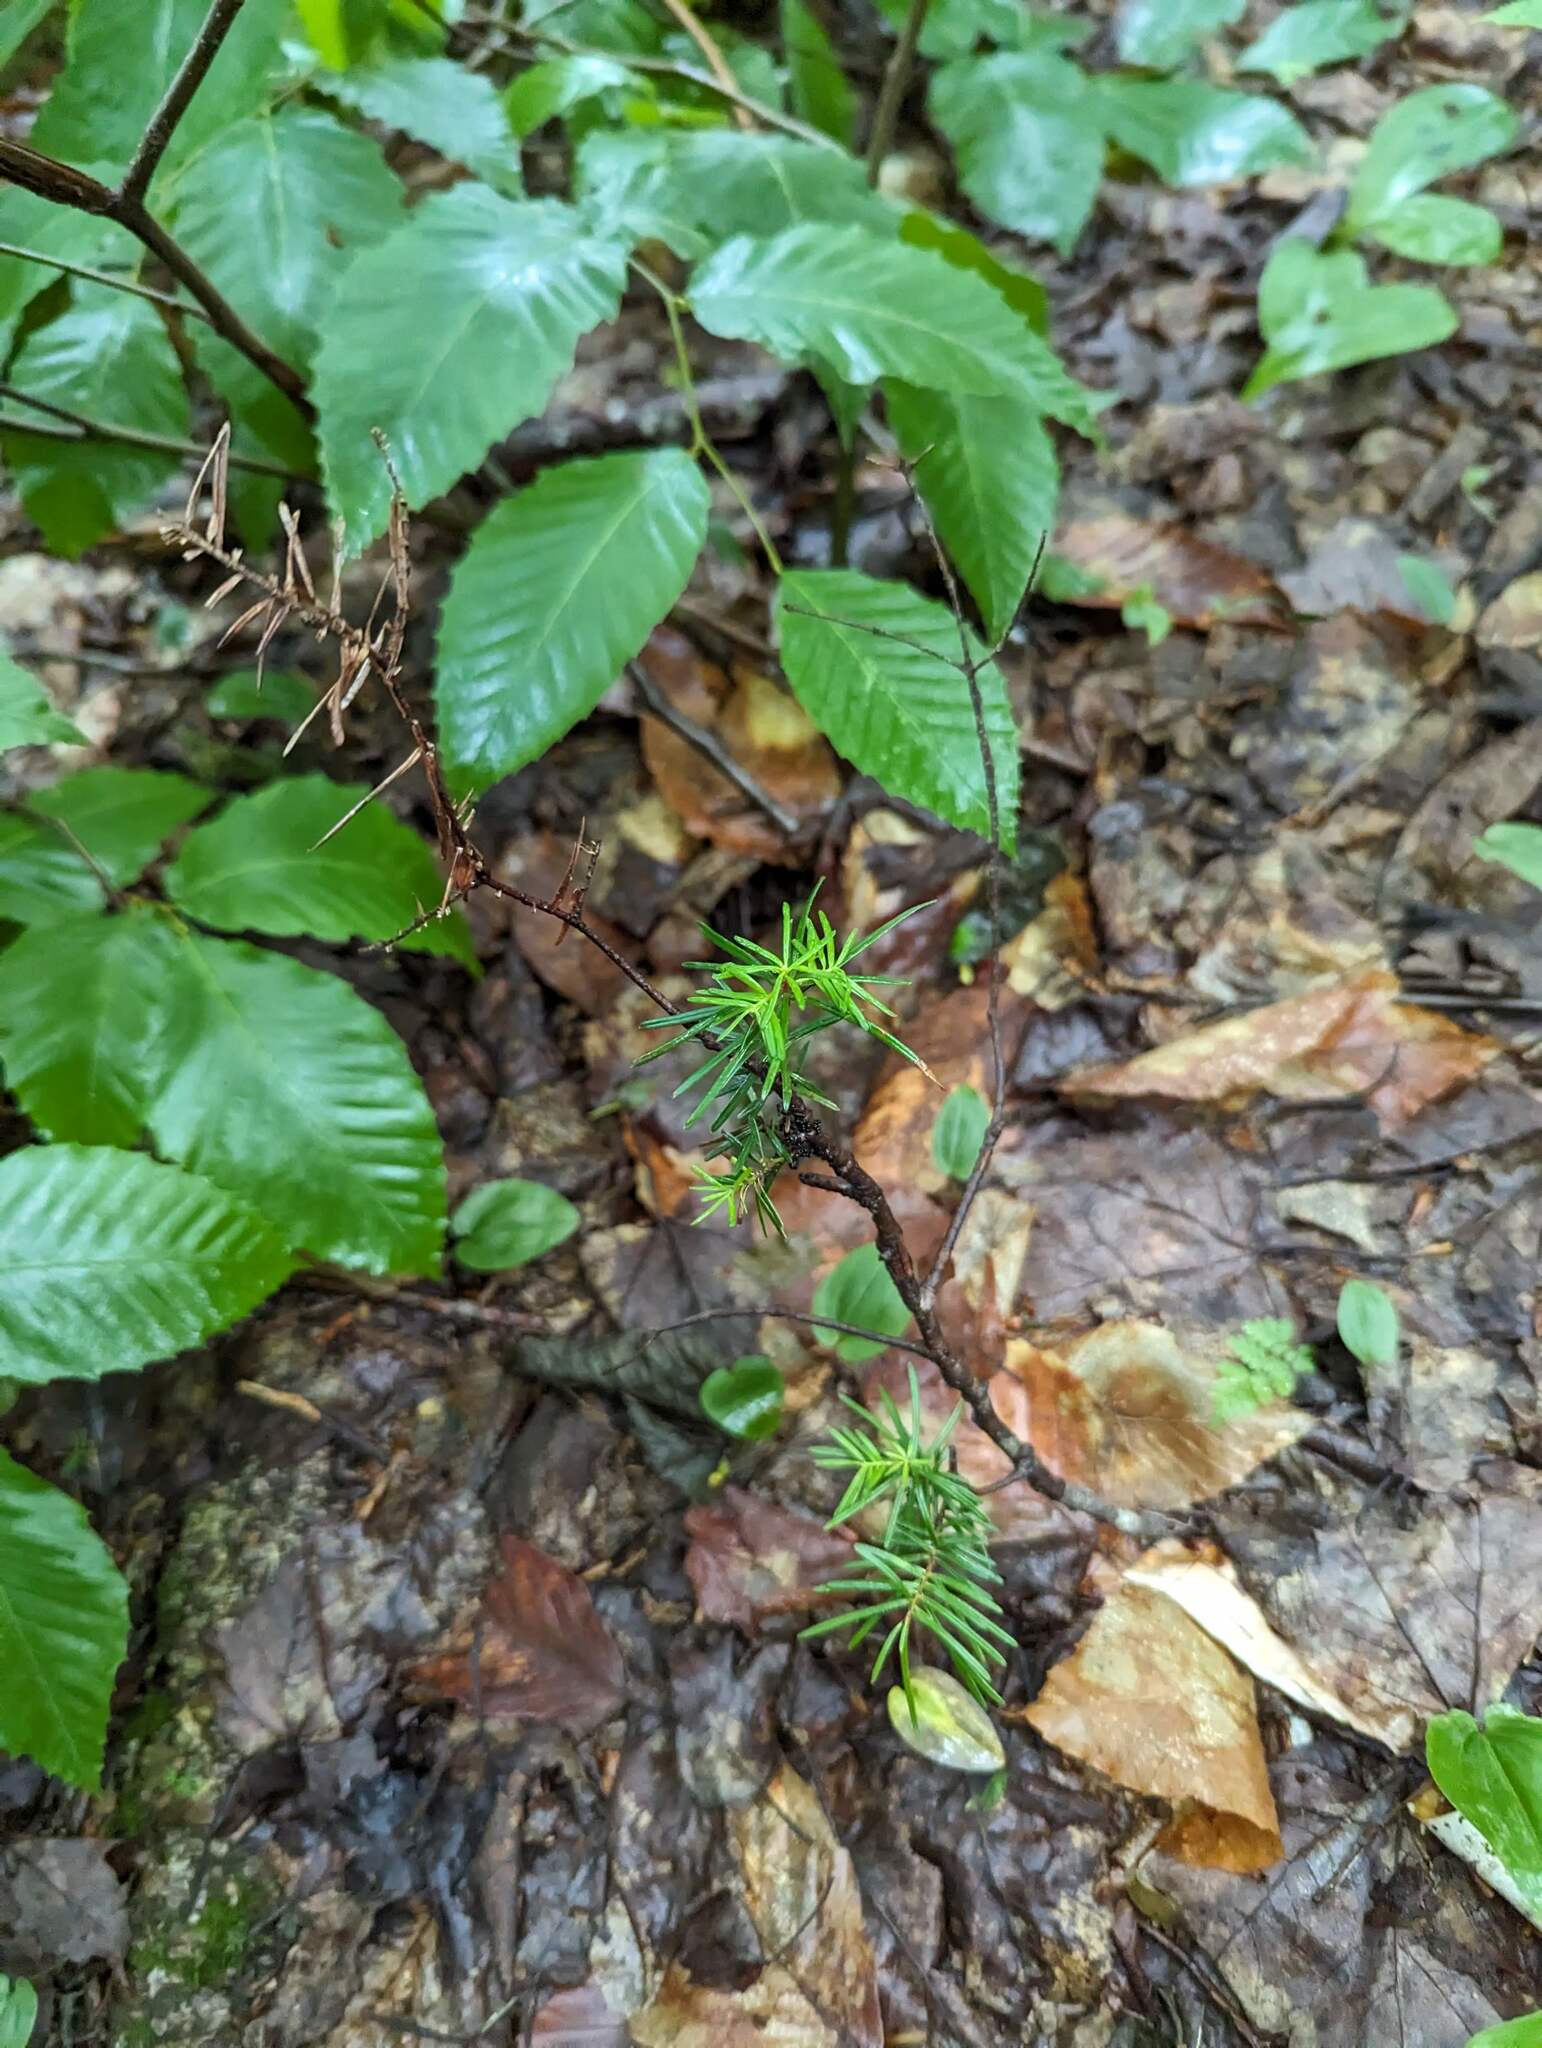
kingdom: Plantae
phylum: Tracheophyta
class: Pinopsida
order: Pinales
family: Pinaceae
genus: Abies
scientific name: Abies balsamea
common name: Balsam fir
